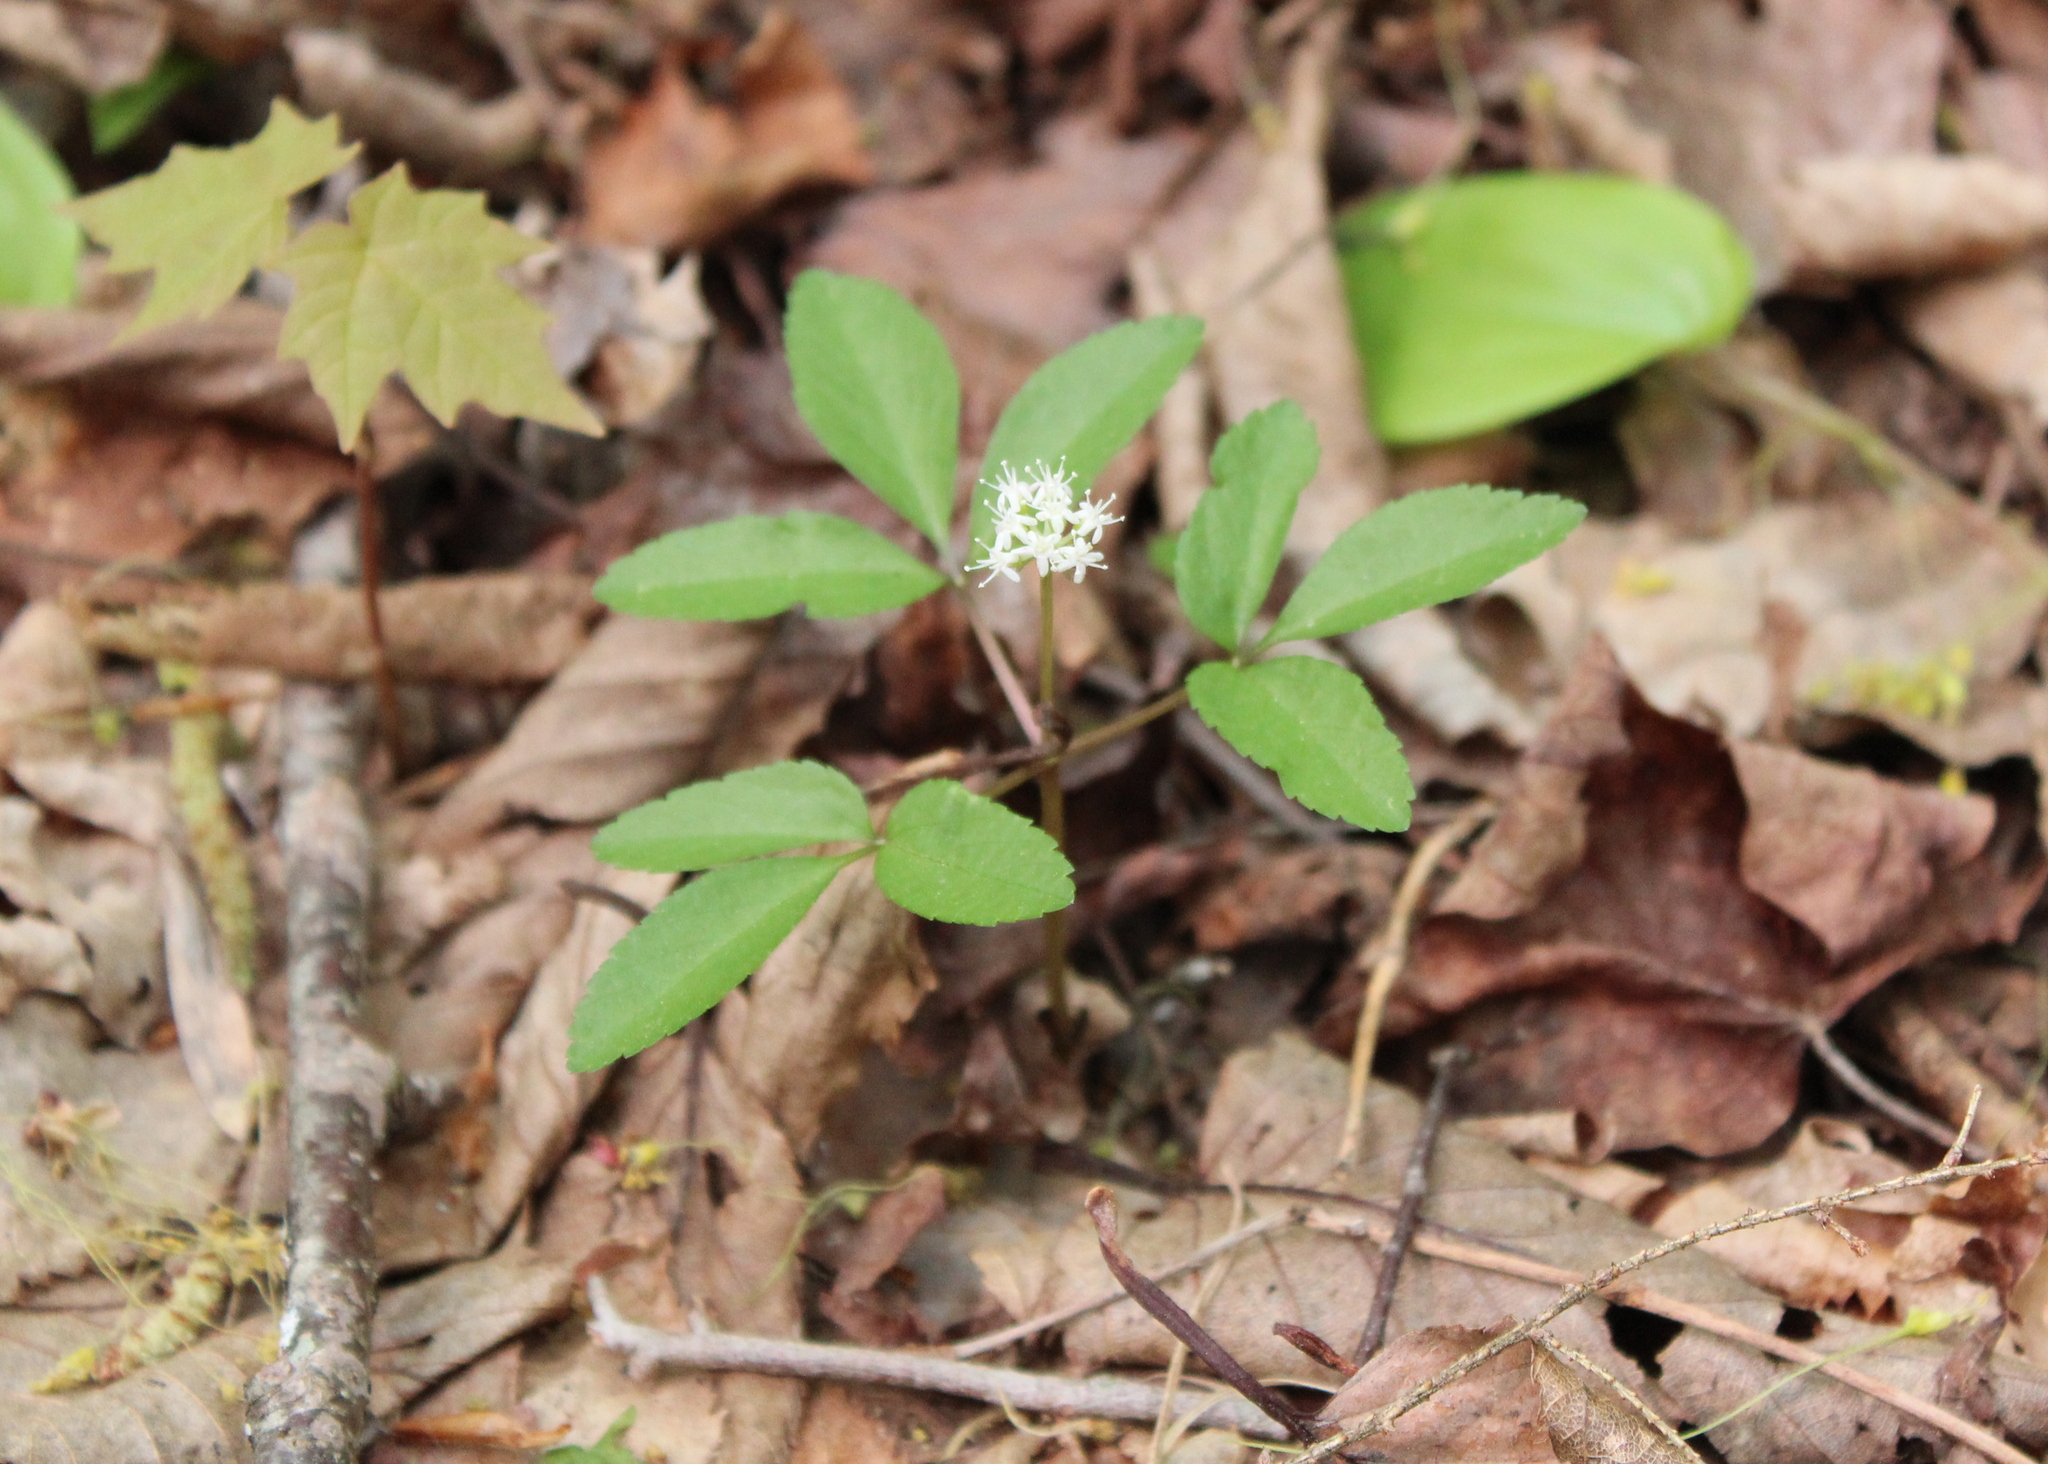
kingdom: Plantae
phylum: Tracheophyta
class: Magnoliopsida
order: Apiales
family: Araliaceae
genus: Panax
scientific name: Panax trifolius
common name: Dwarf ginseng
